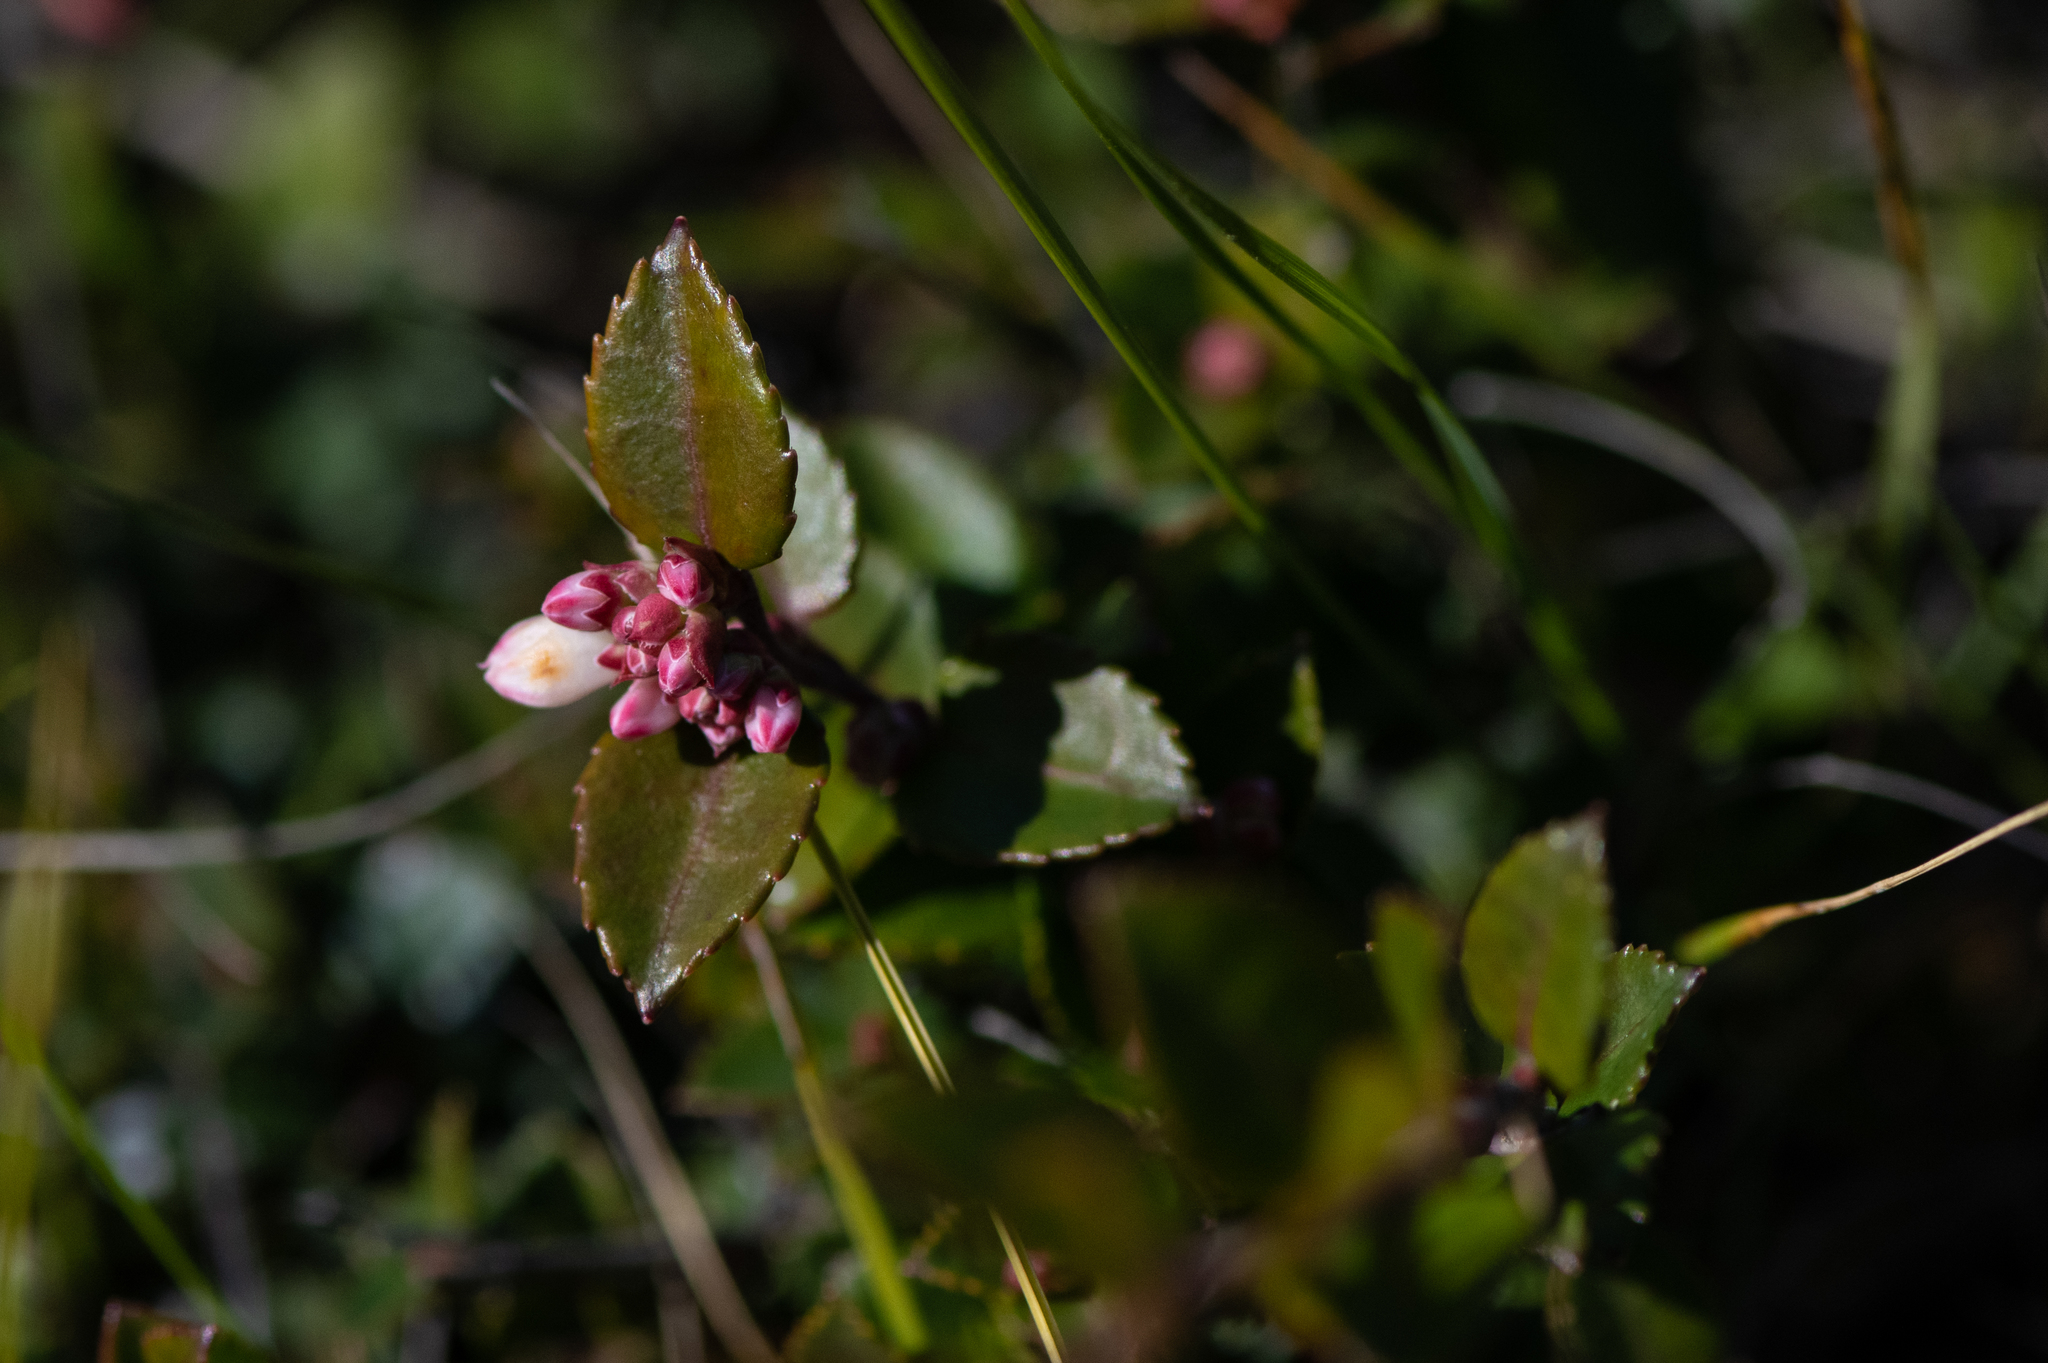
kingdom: Plantae
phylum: Tracheophyta
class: Magnoliopsida
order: Ericales
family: Ericaceae
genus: Vaccinium
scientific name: Vaccinium ovatum
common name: California-huckleberry
